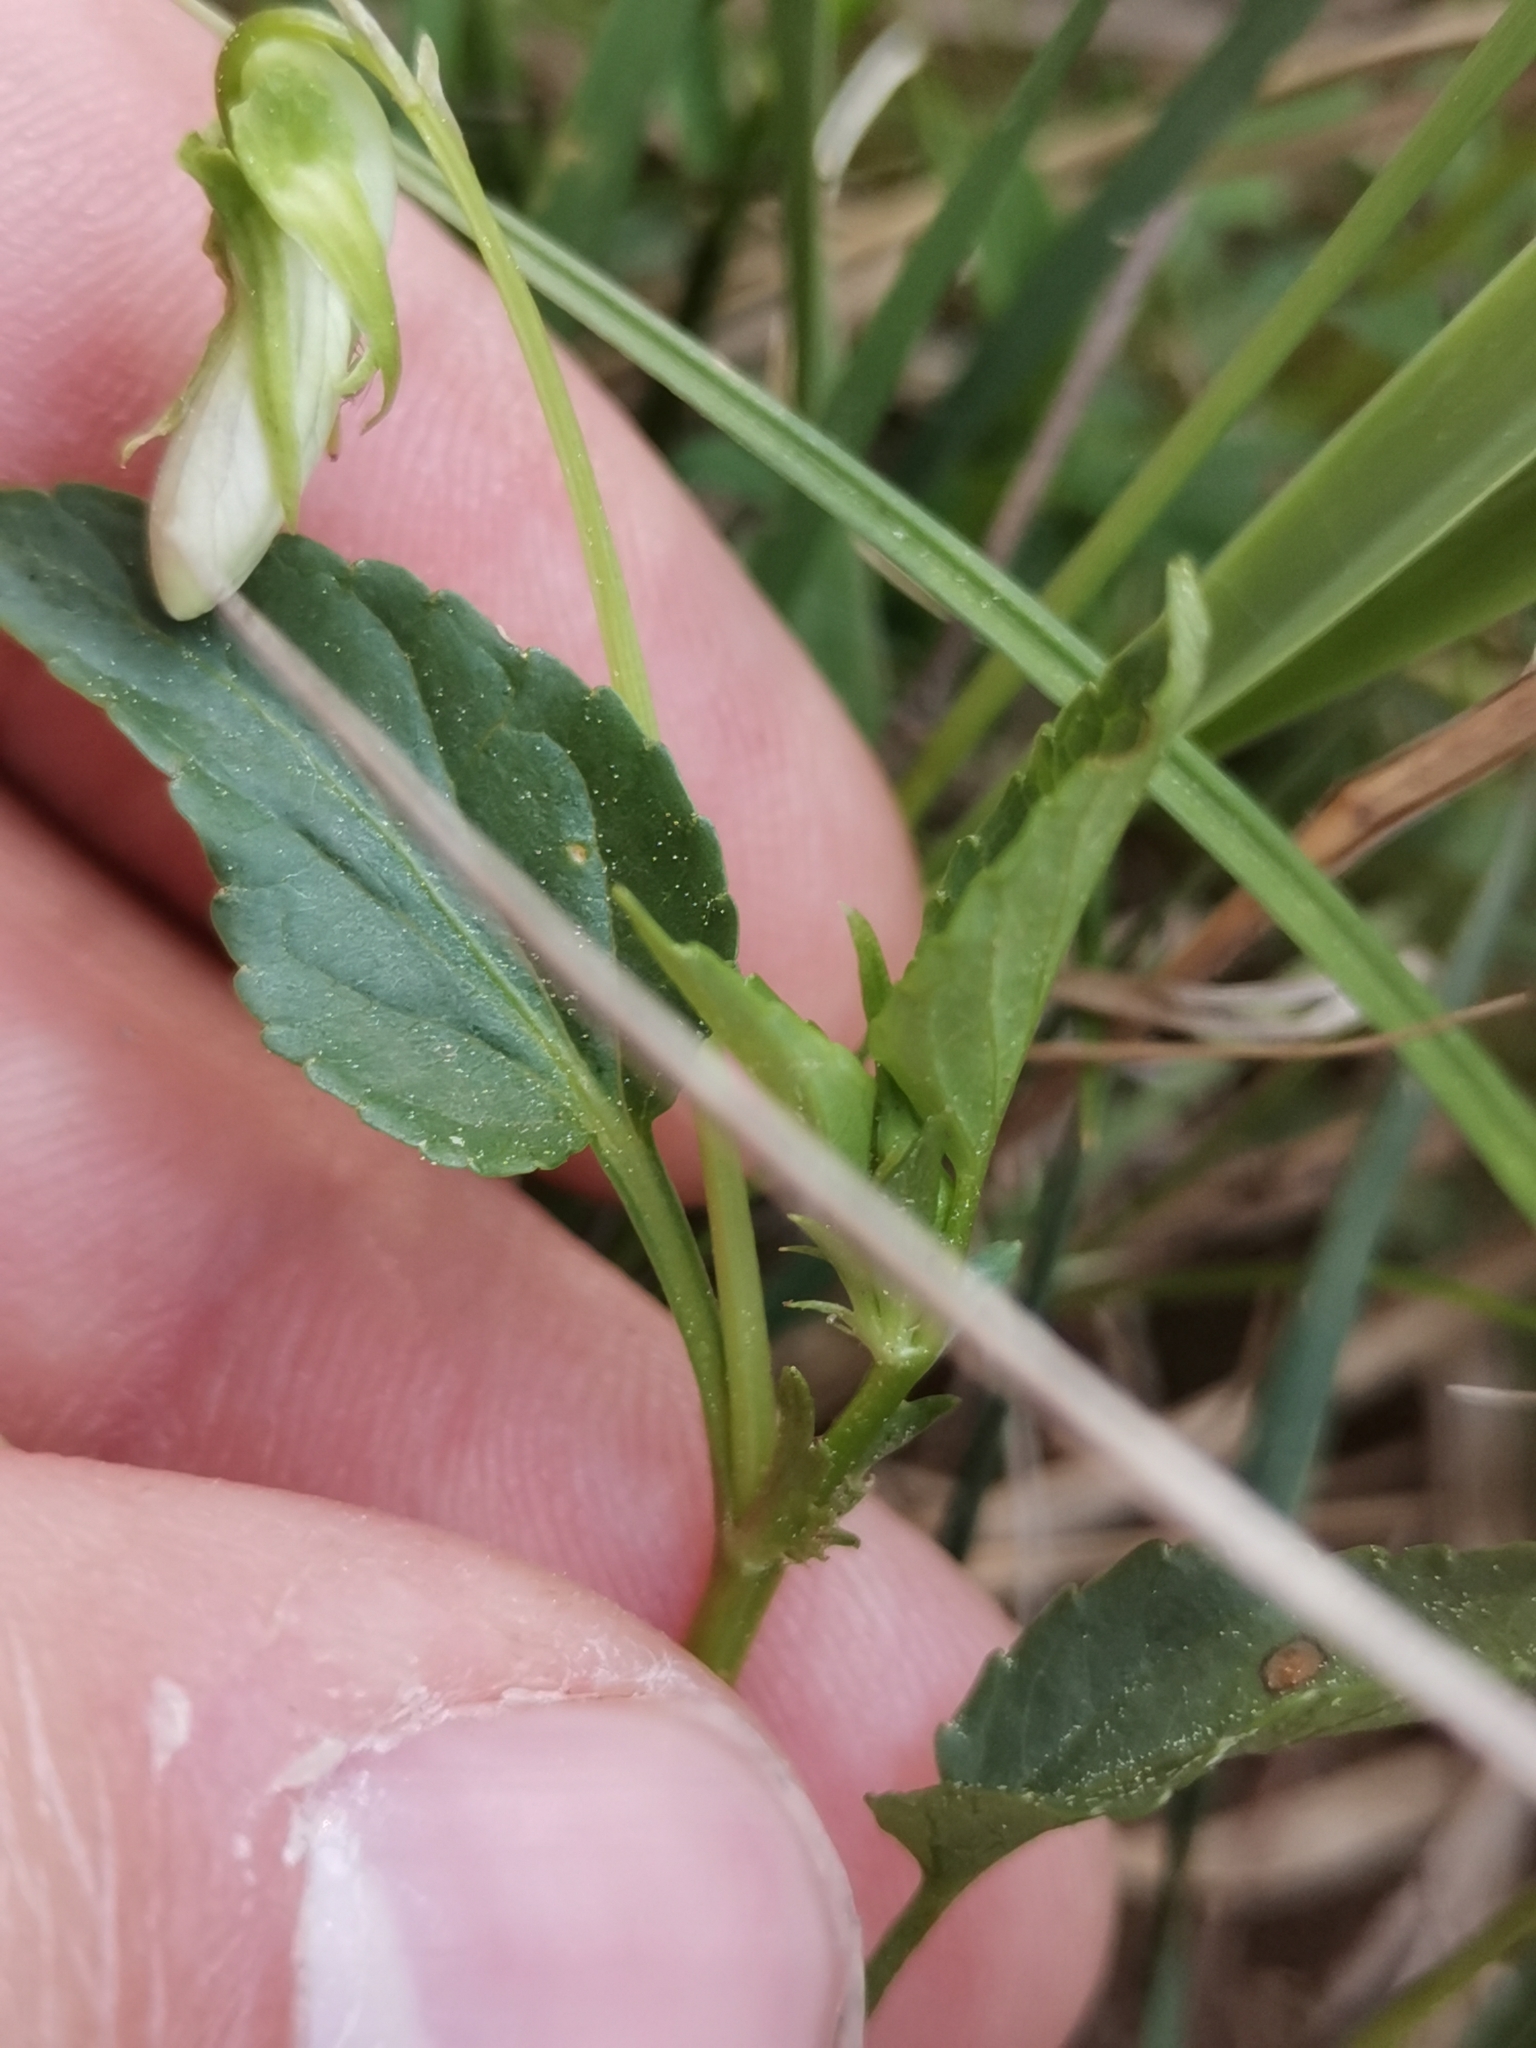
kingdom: Plantae
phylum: Tracheophyta
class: Magnoliopsida
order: Malpighiales
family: Violaceae
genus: Viola
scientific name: Viola canina
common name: Heath dog-violet
